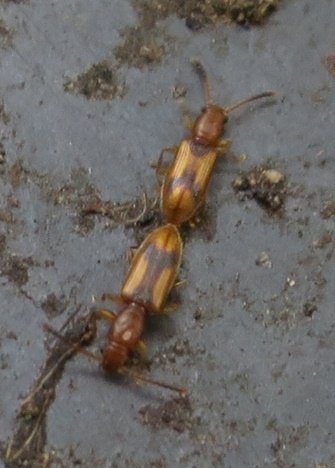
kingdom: Animalia
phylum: Arthropoda
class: Insecta
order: Coleoptera
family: Silvanidae
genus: Cryptamorpha
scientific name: Cryptamorpha desjardinsi
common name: Cryptamorpha
